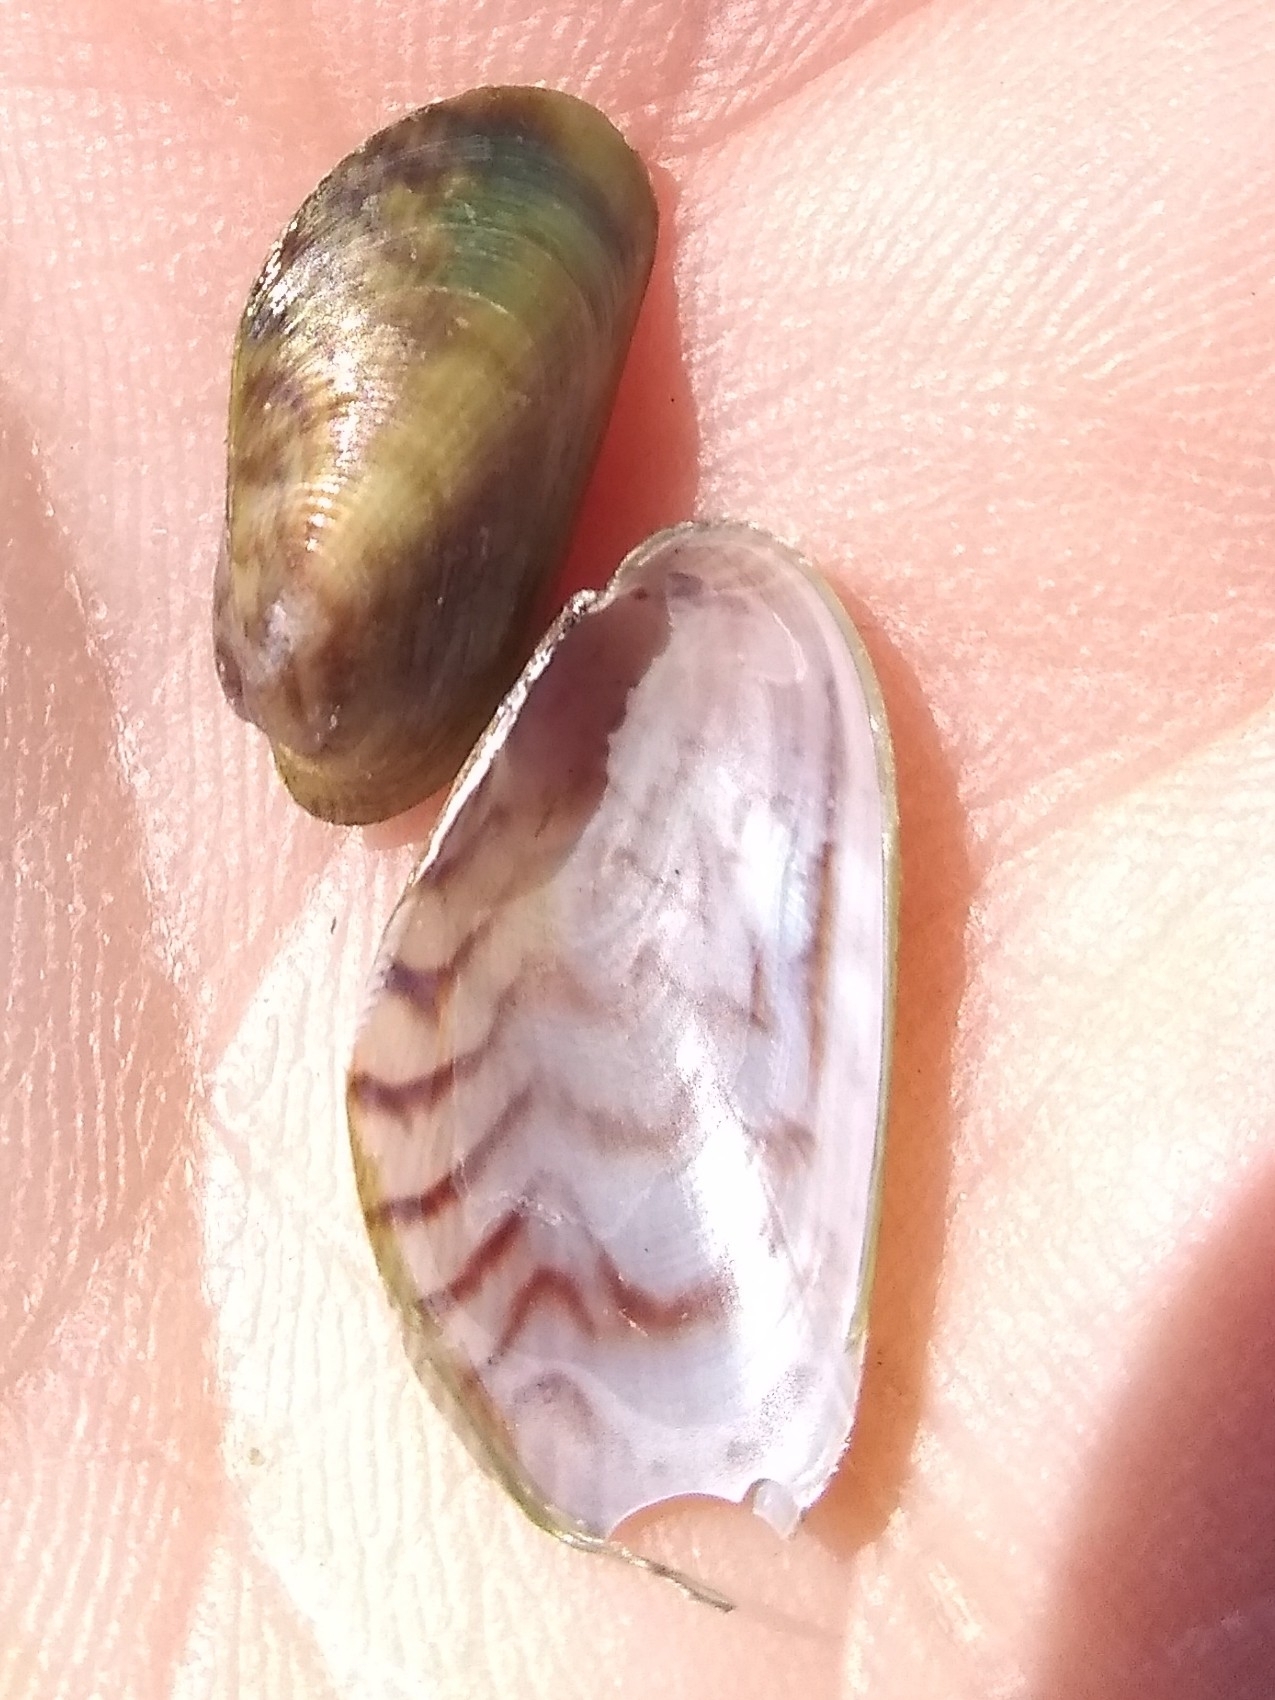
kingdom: Animalia
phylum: Mollusca
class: Bivalvia
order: Mytilida
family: Mytilidae
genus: Arcuatula
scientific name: Arcuatula senhousia
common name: Asian mussel
